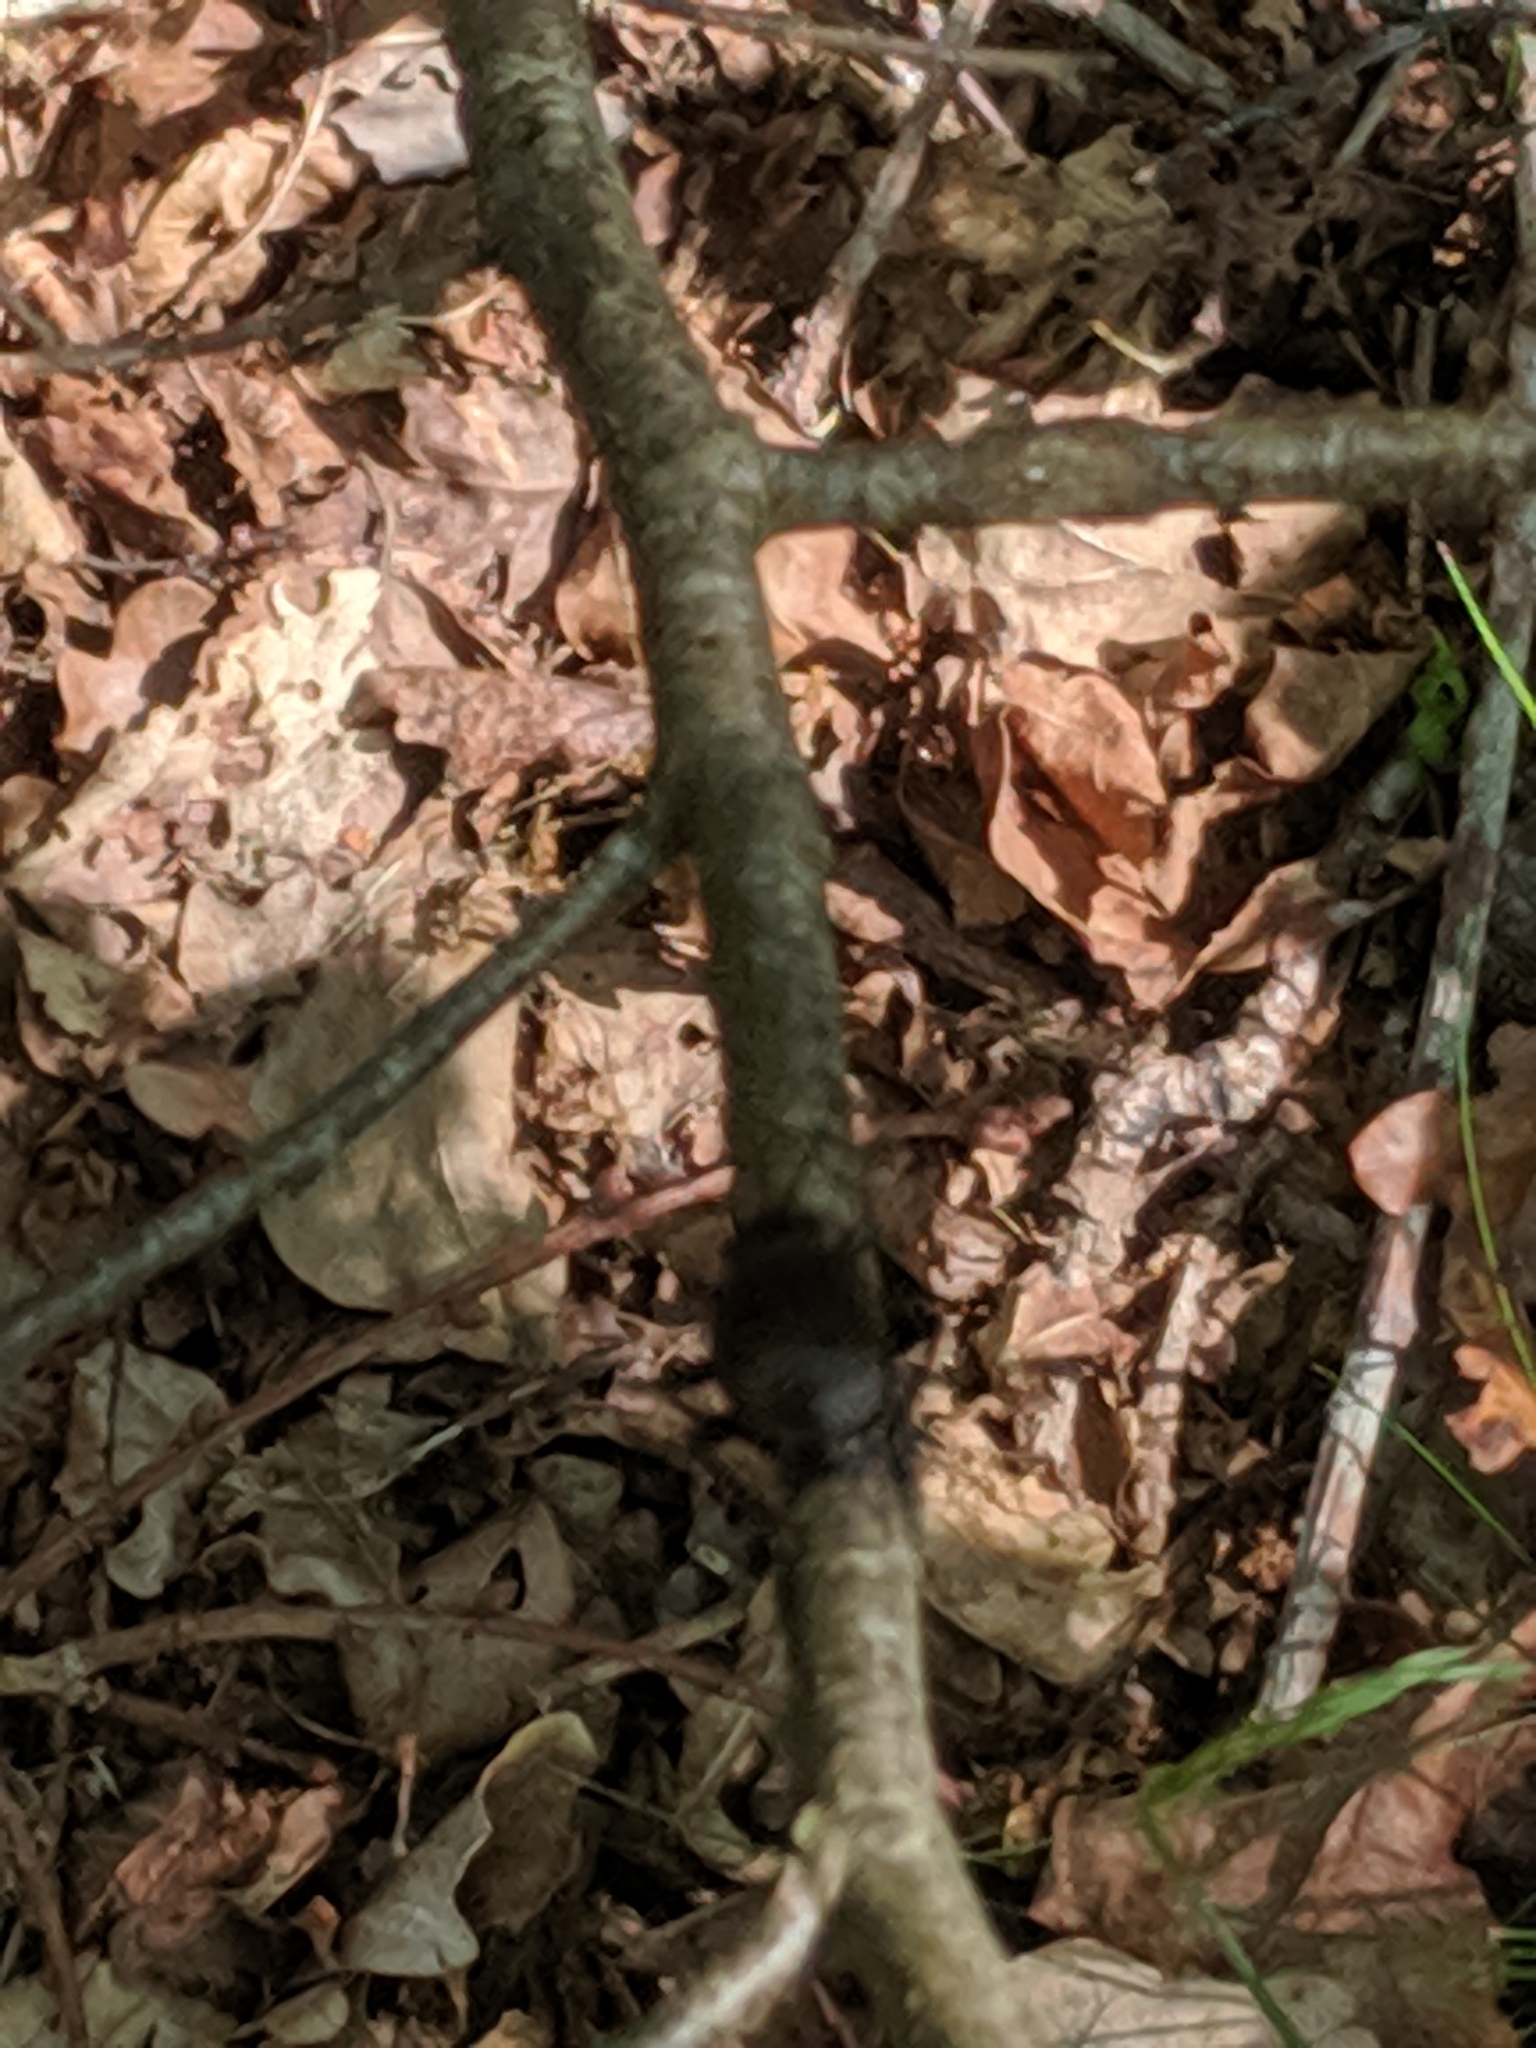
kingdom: Animalia
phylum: Arthropoda
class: Insecta
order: Coleoptera
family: Carabidae
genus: Calosoma
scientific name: Calosoma inquisitor
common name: Caterpillar-hunter
